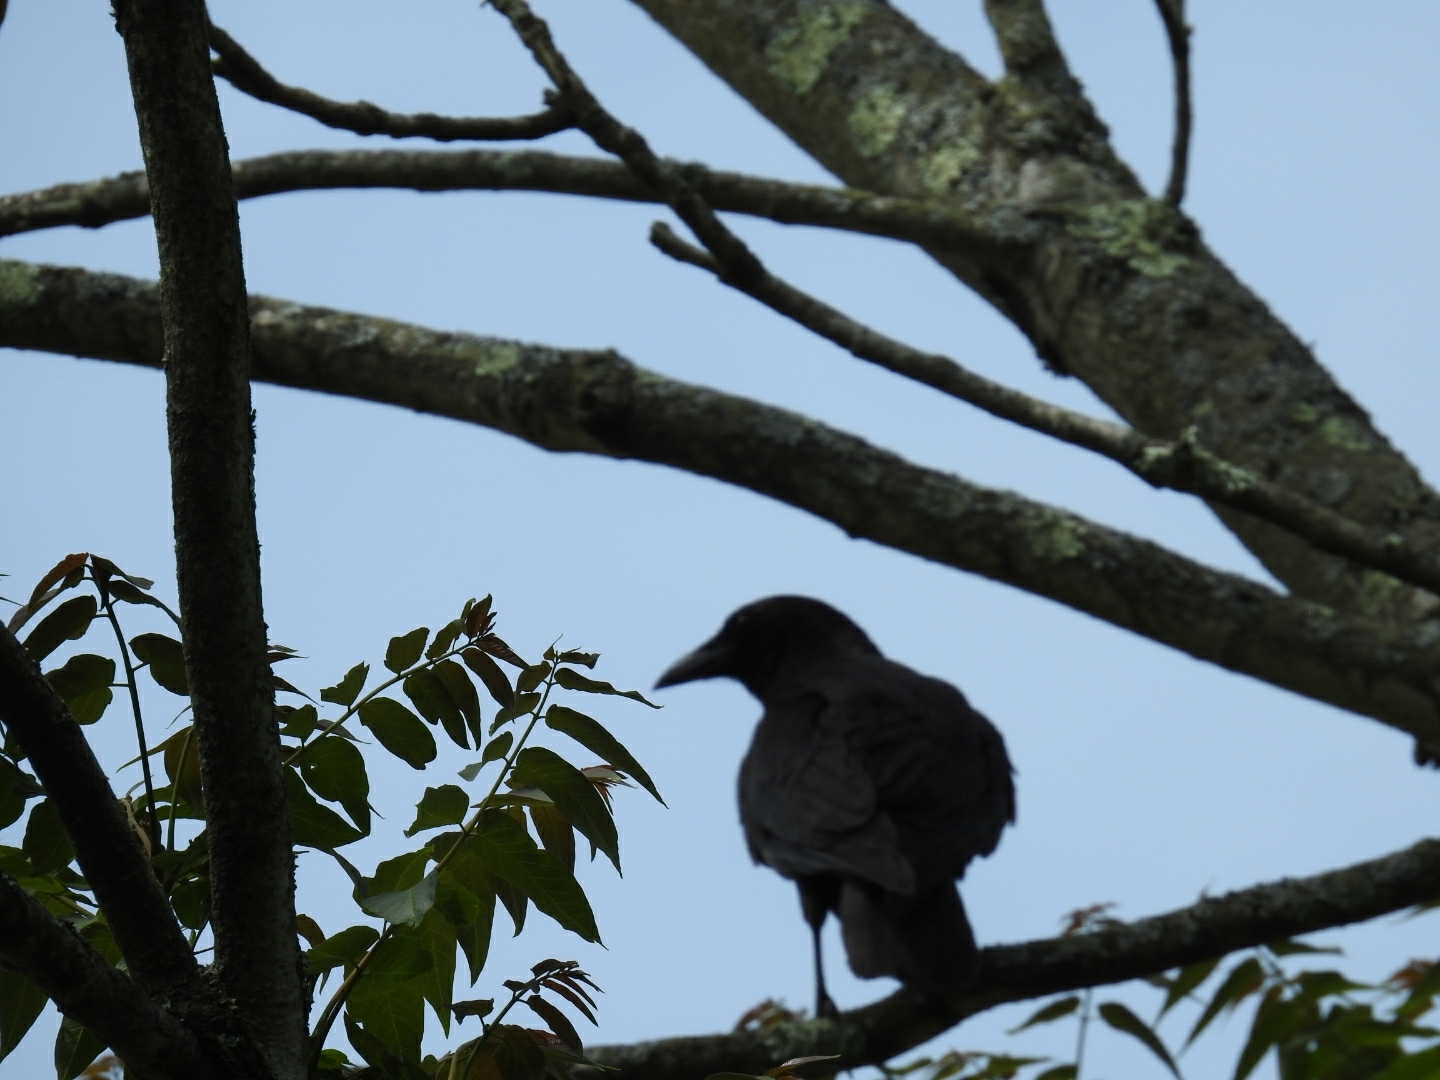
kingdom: Animalia
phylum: Chordata
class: Aves
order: Passeriformes
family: Corvidae
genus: Corvus
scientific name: Corvus brachyrhynchos
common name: American crow
